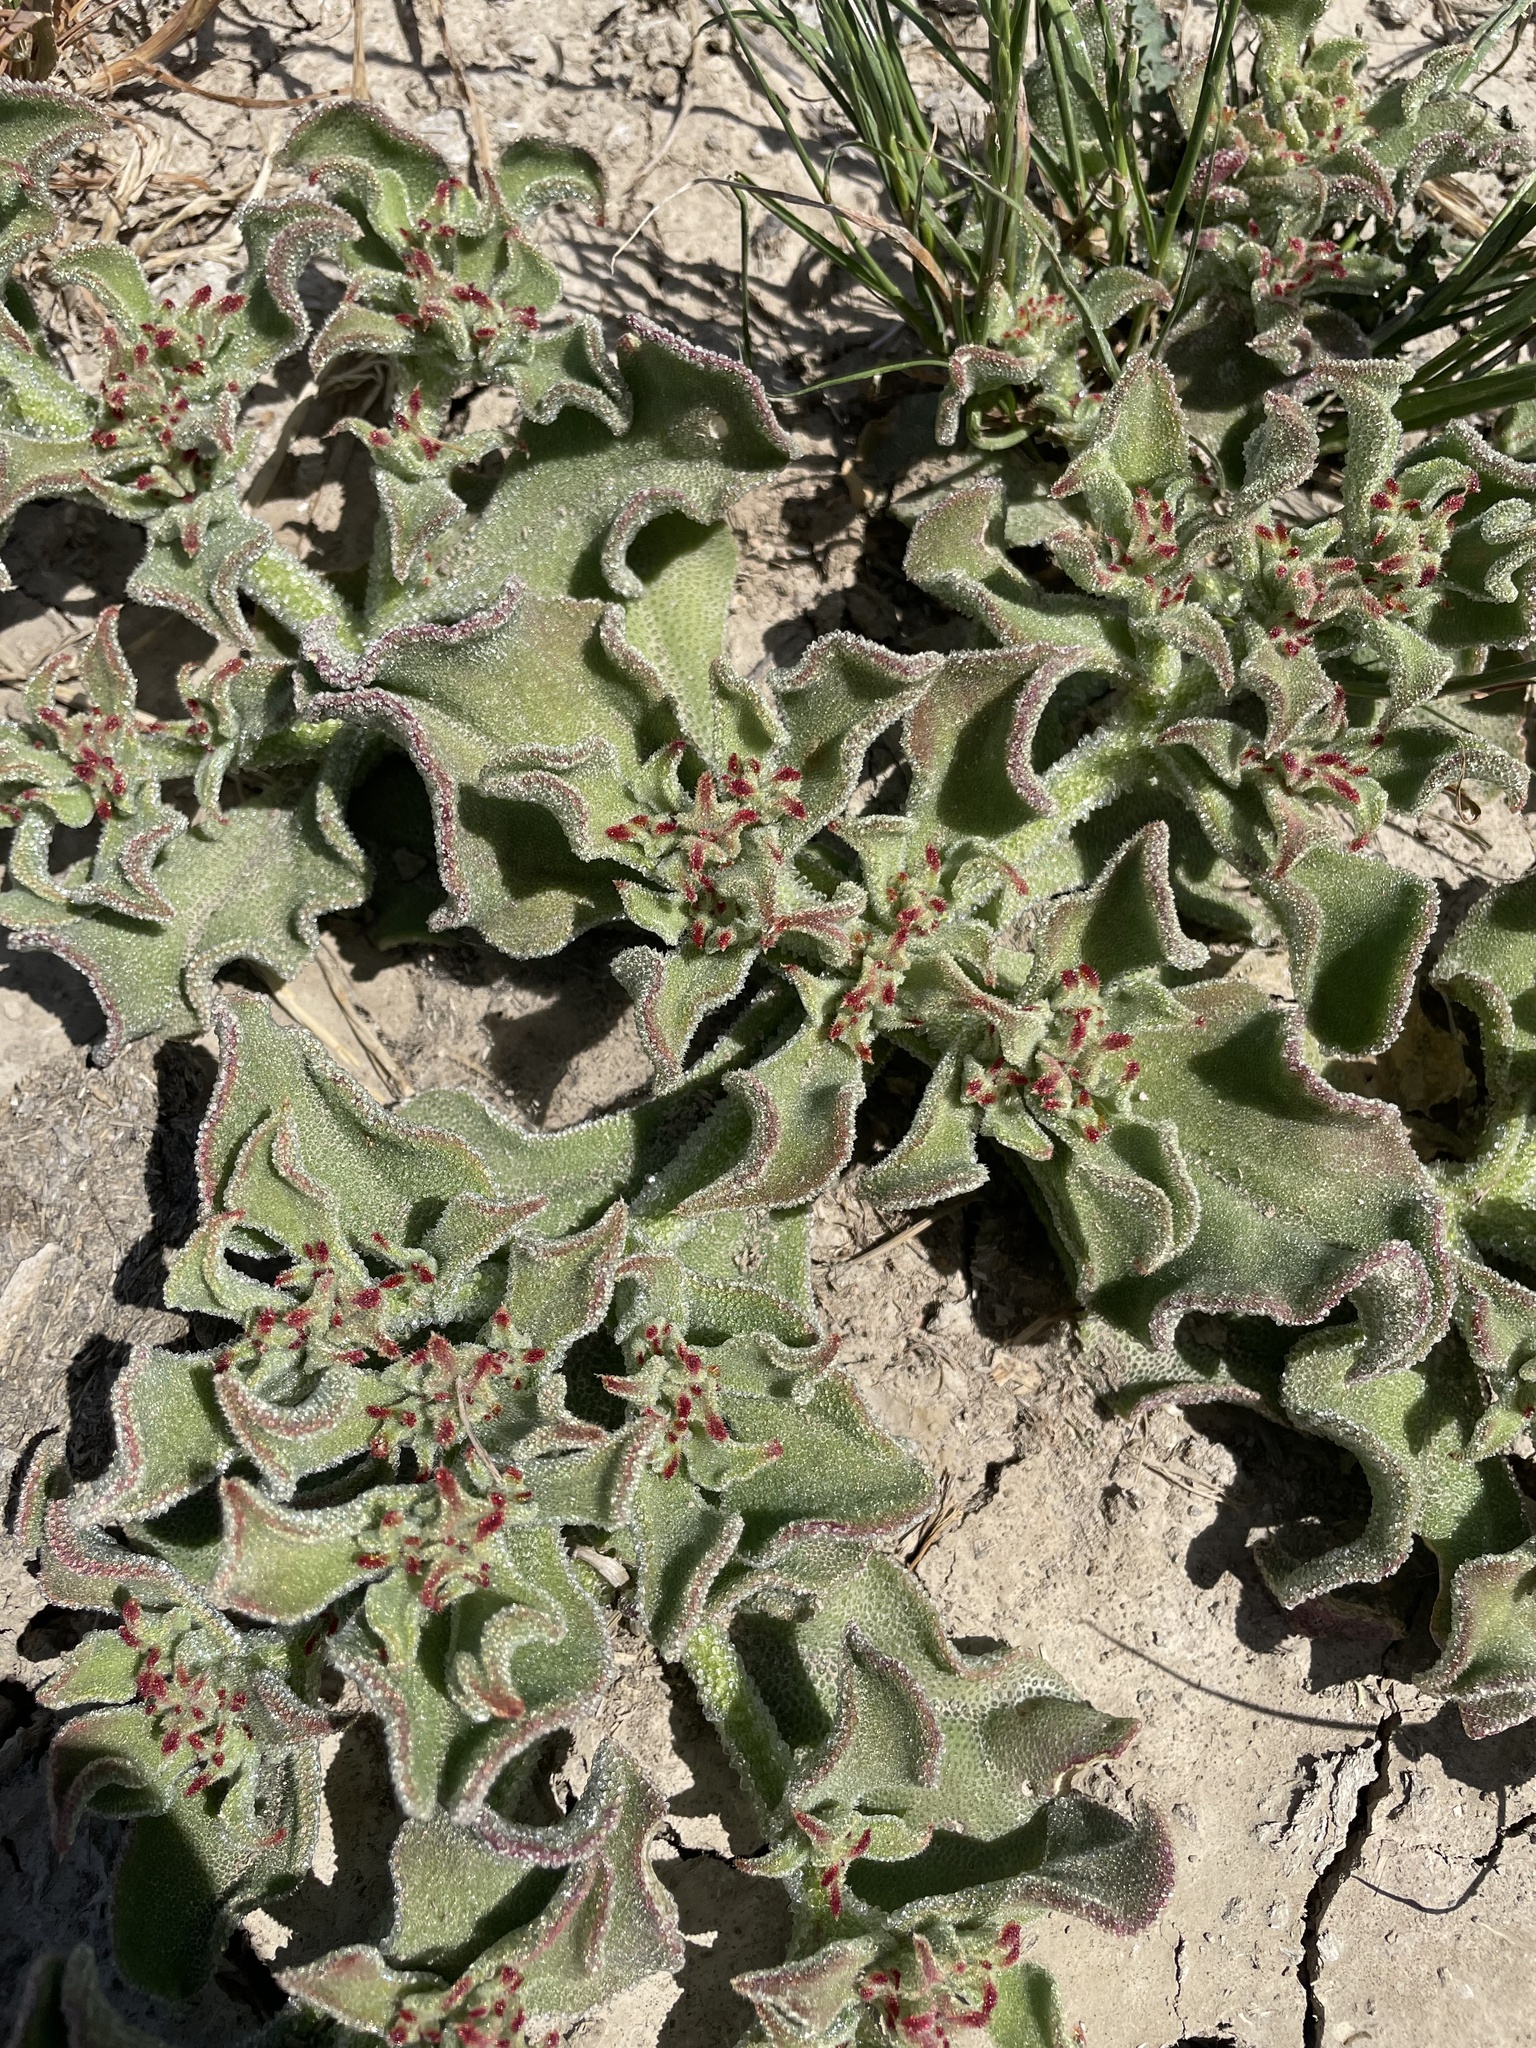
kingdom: Plantae
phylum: Tracheophyta
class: Magnoliopsida
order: Caryophyllales
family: Aizoaceae
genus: Mesembryanthemum
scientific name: Mesembryanthemum crystallinum
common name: Common iceplant
